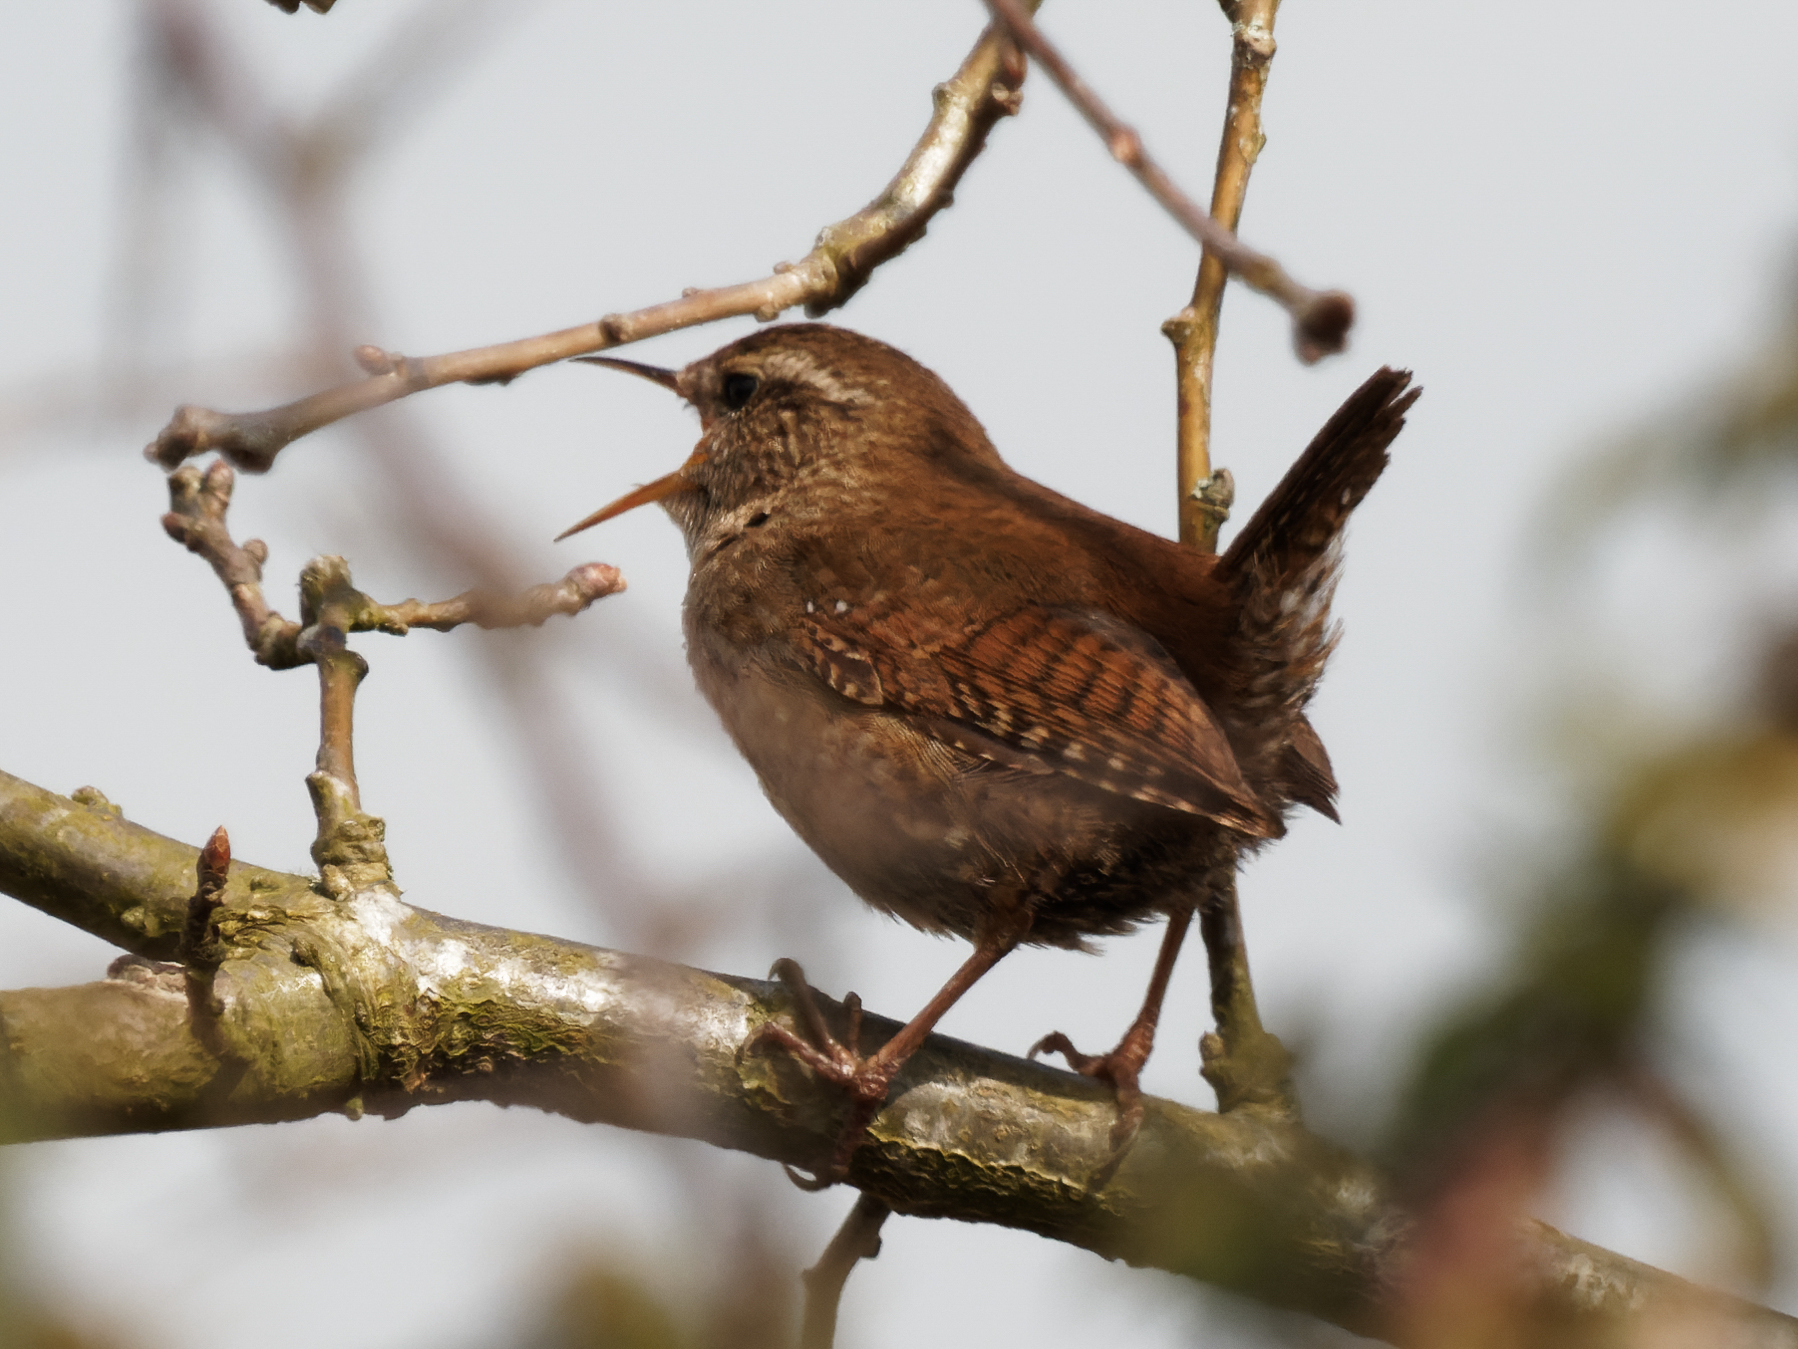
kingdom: Animalia
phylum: Chordata
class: Aves
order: Passeriformes
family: Troglodytidae
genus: Troglodytes
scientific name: Troglodytes troglodytes
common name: Eurasian wren
